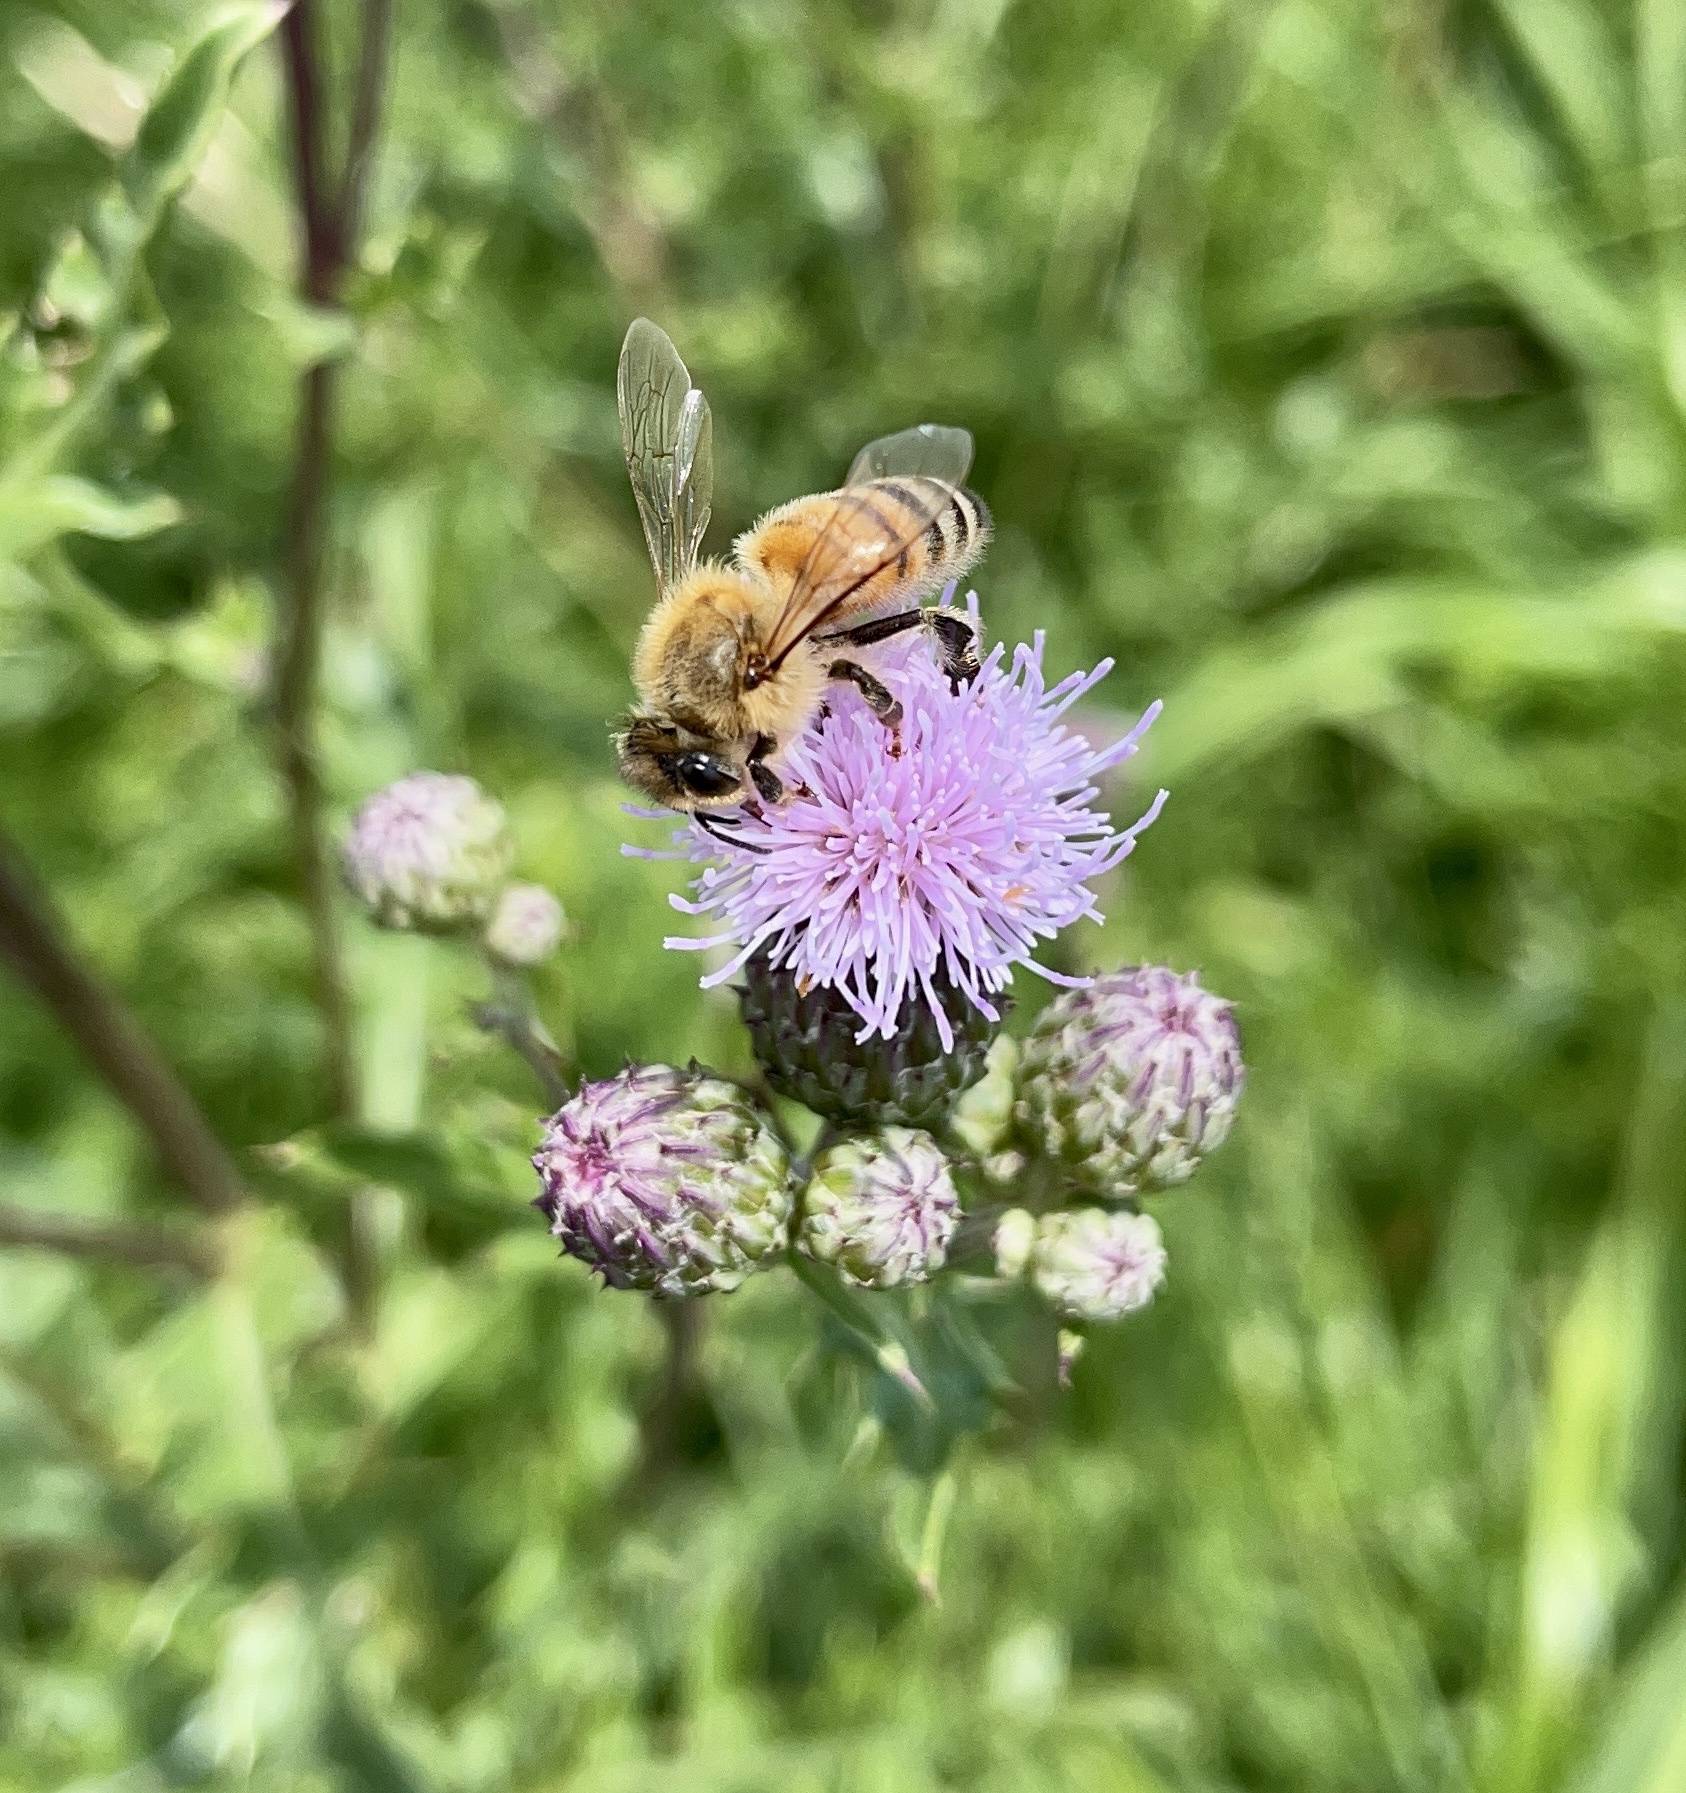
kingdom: Animalia
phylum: Arthropoda
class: Insecta
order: Hymenoptera
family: Apidae
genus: Apis
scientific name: Apis mellifera
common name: Honey bee
